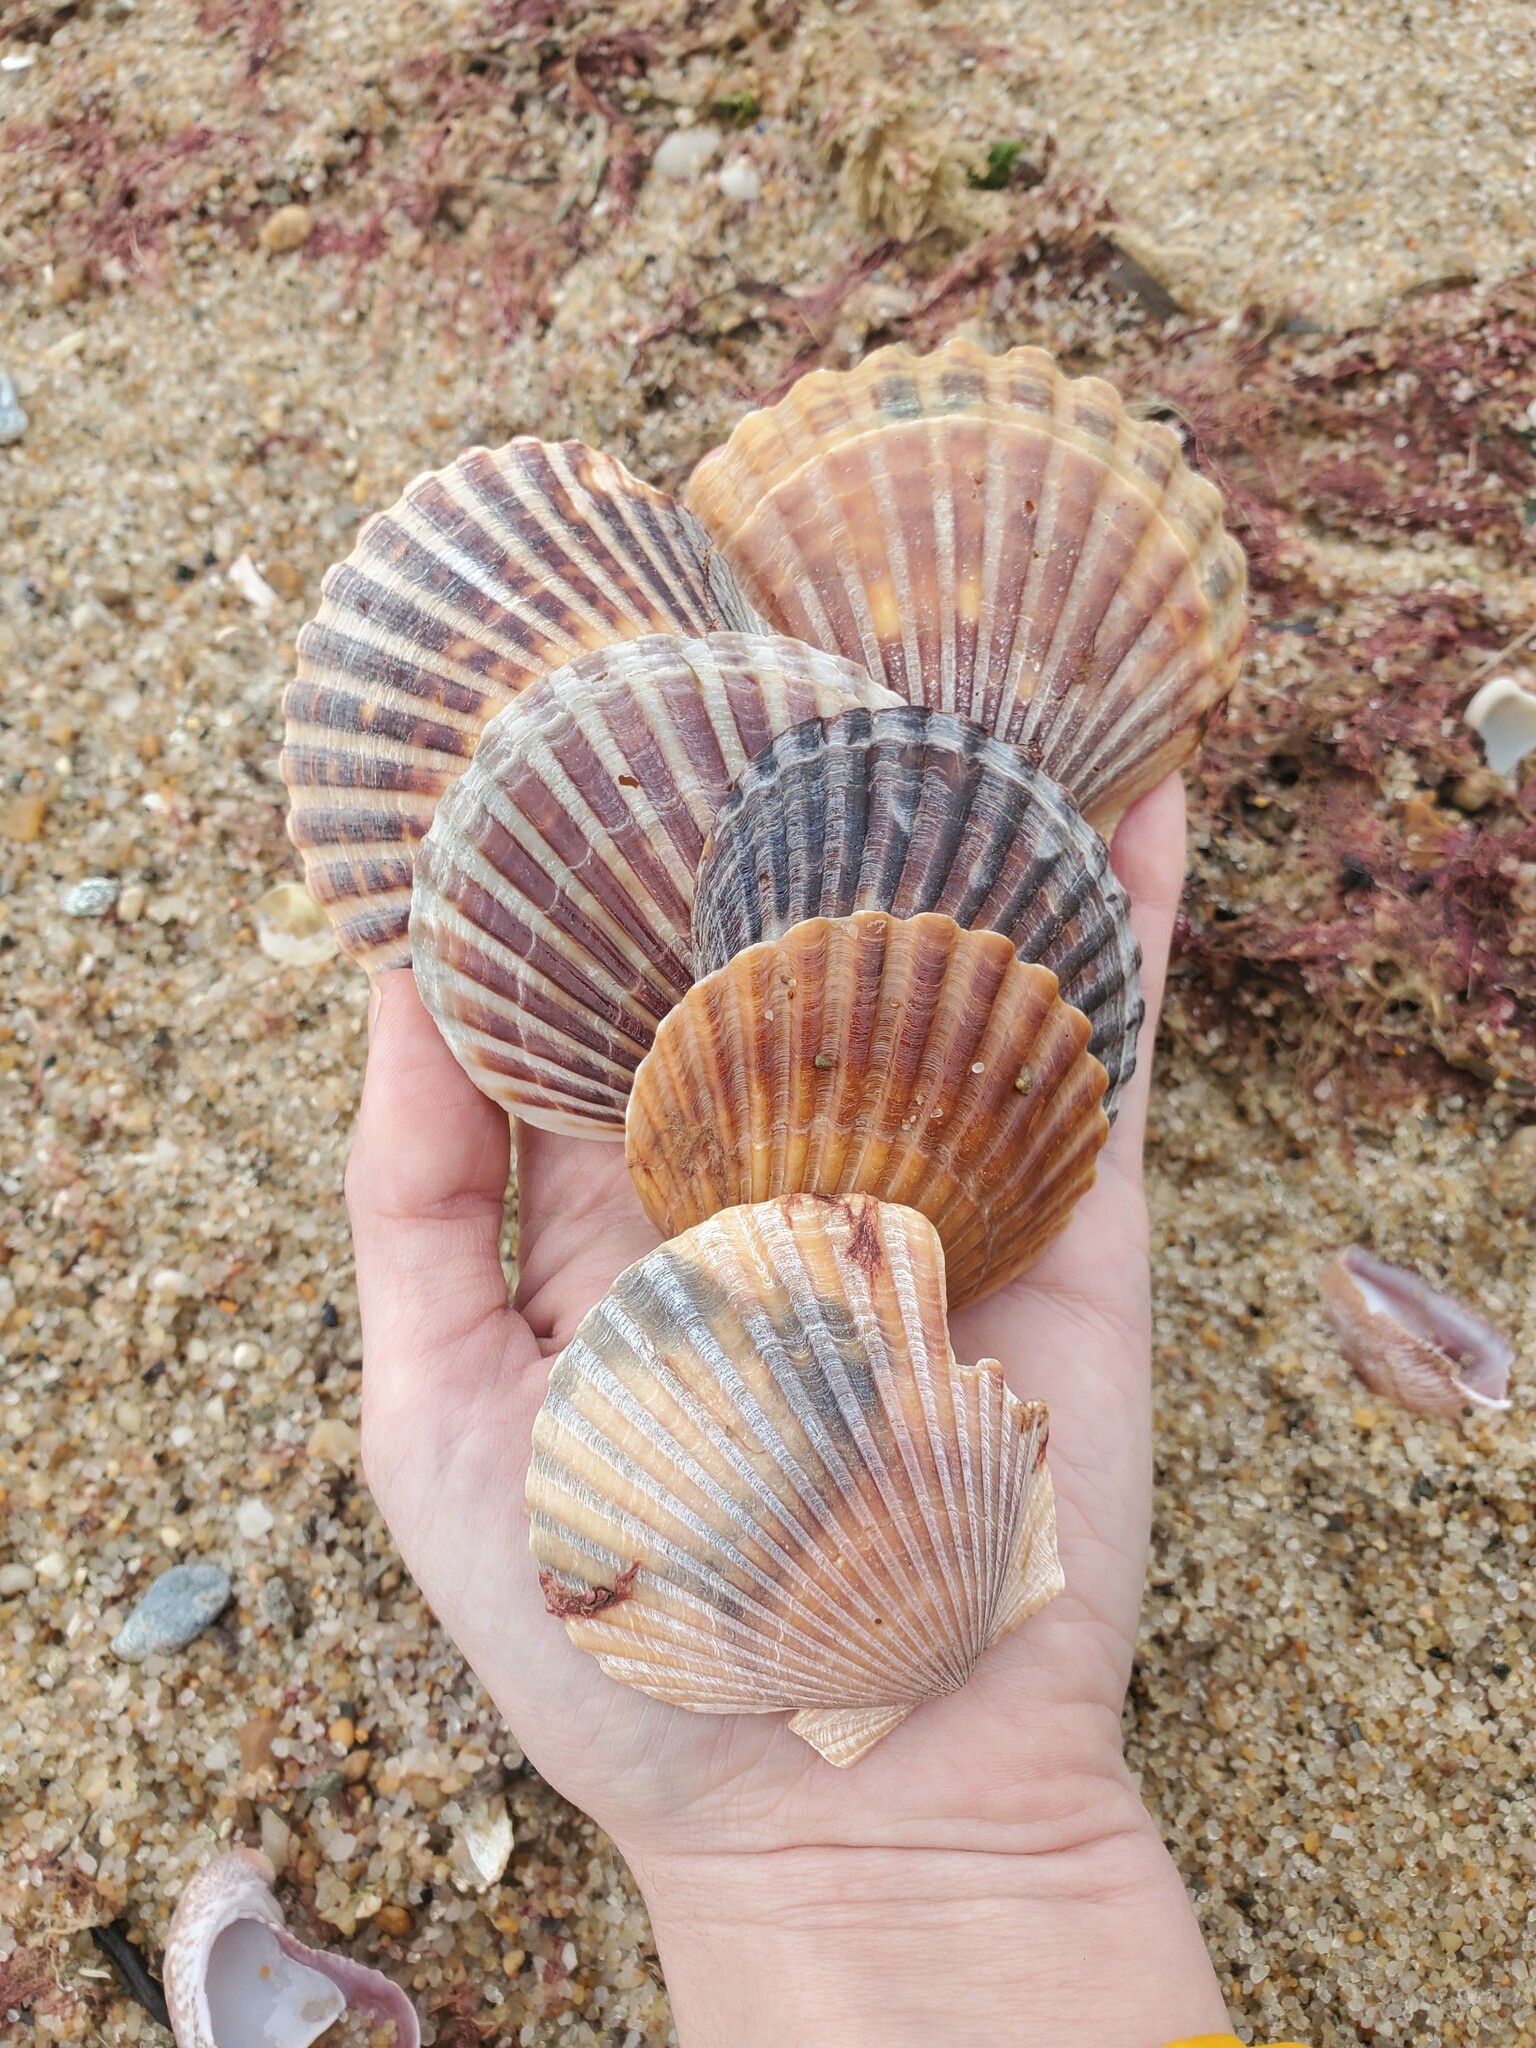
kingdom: Animalia
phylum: Mollusca
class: Bivalvia
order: Pectinida
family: Pectinidae
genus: Argopecten
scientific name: Argopecten irradians
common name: Atlantic bay scallop
